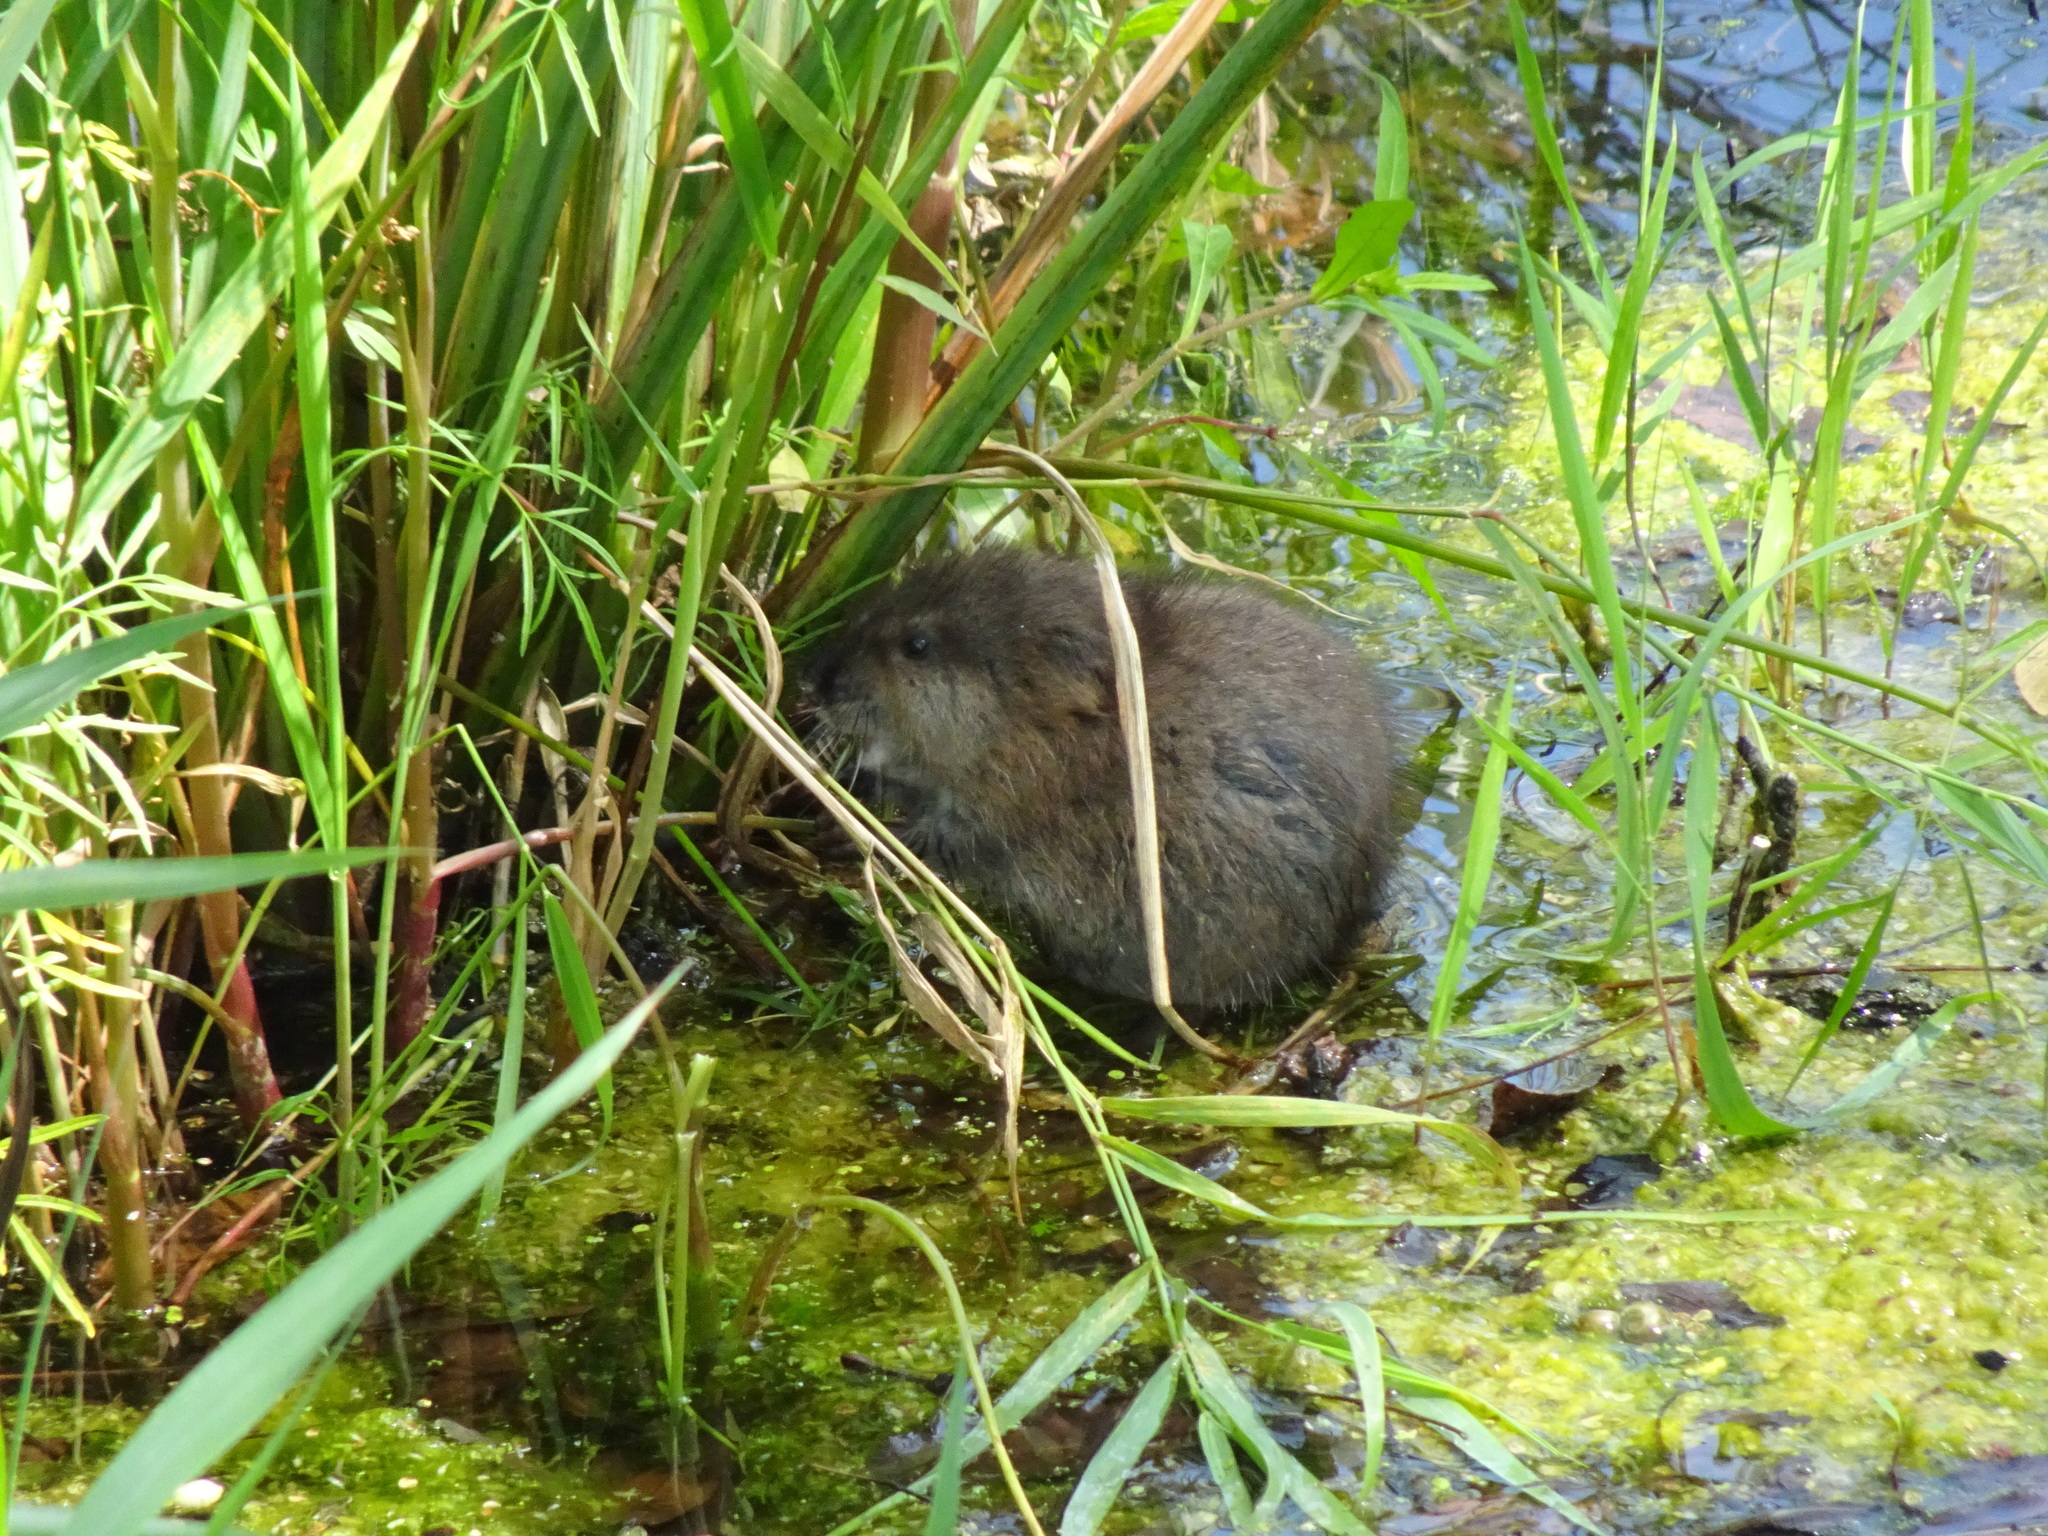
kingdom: Animalia
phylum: Chordata
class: Mammalia
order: Rodentia
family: Cricetidae
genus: Ondatra
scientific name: Ondatra zibethicus
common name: Muskrat
